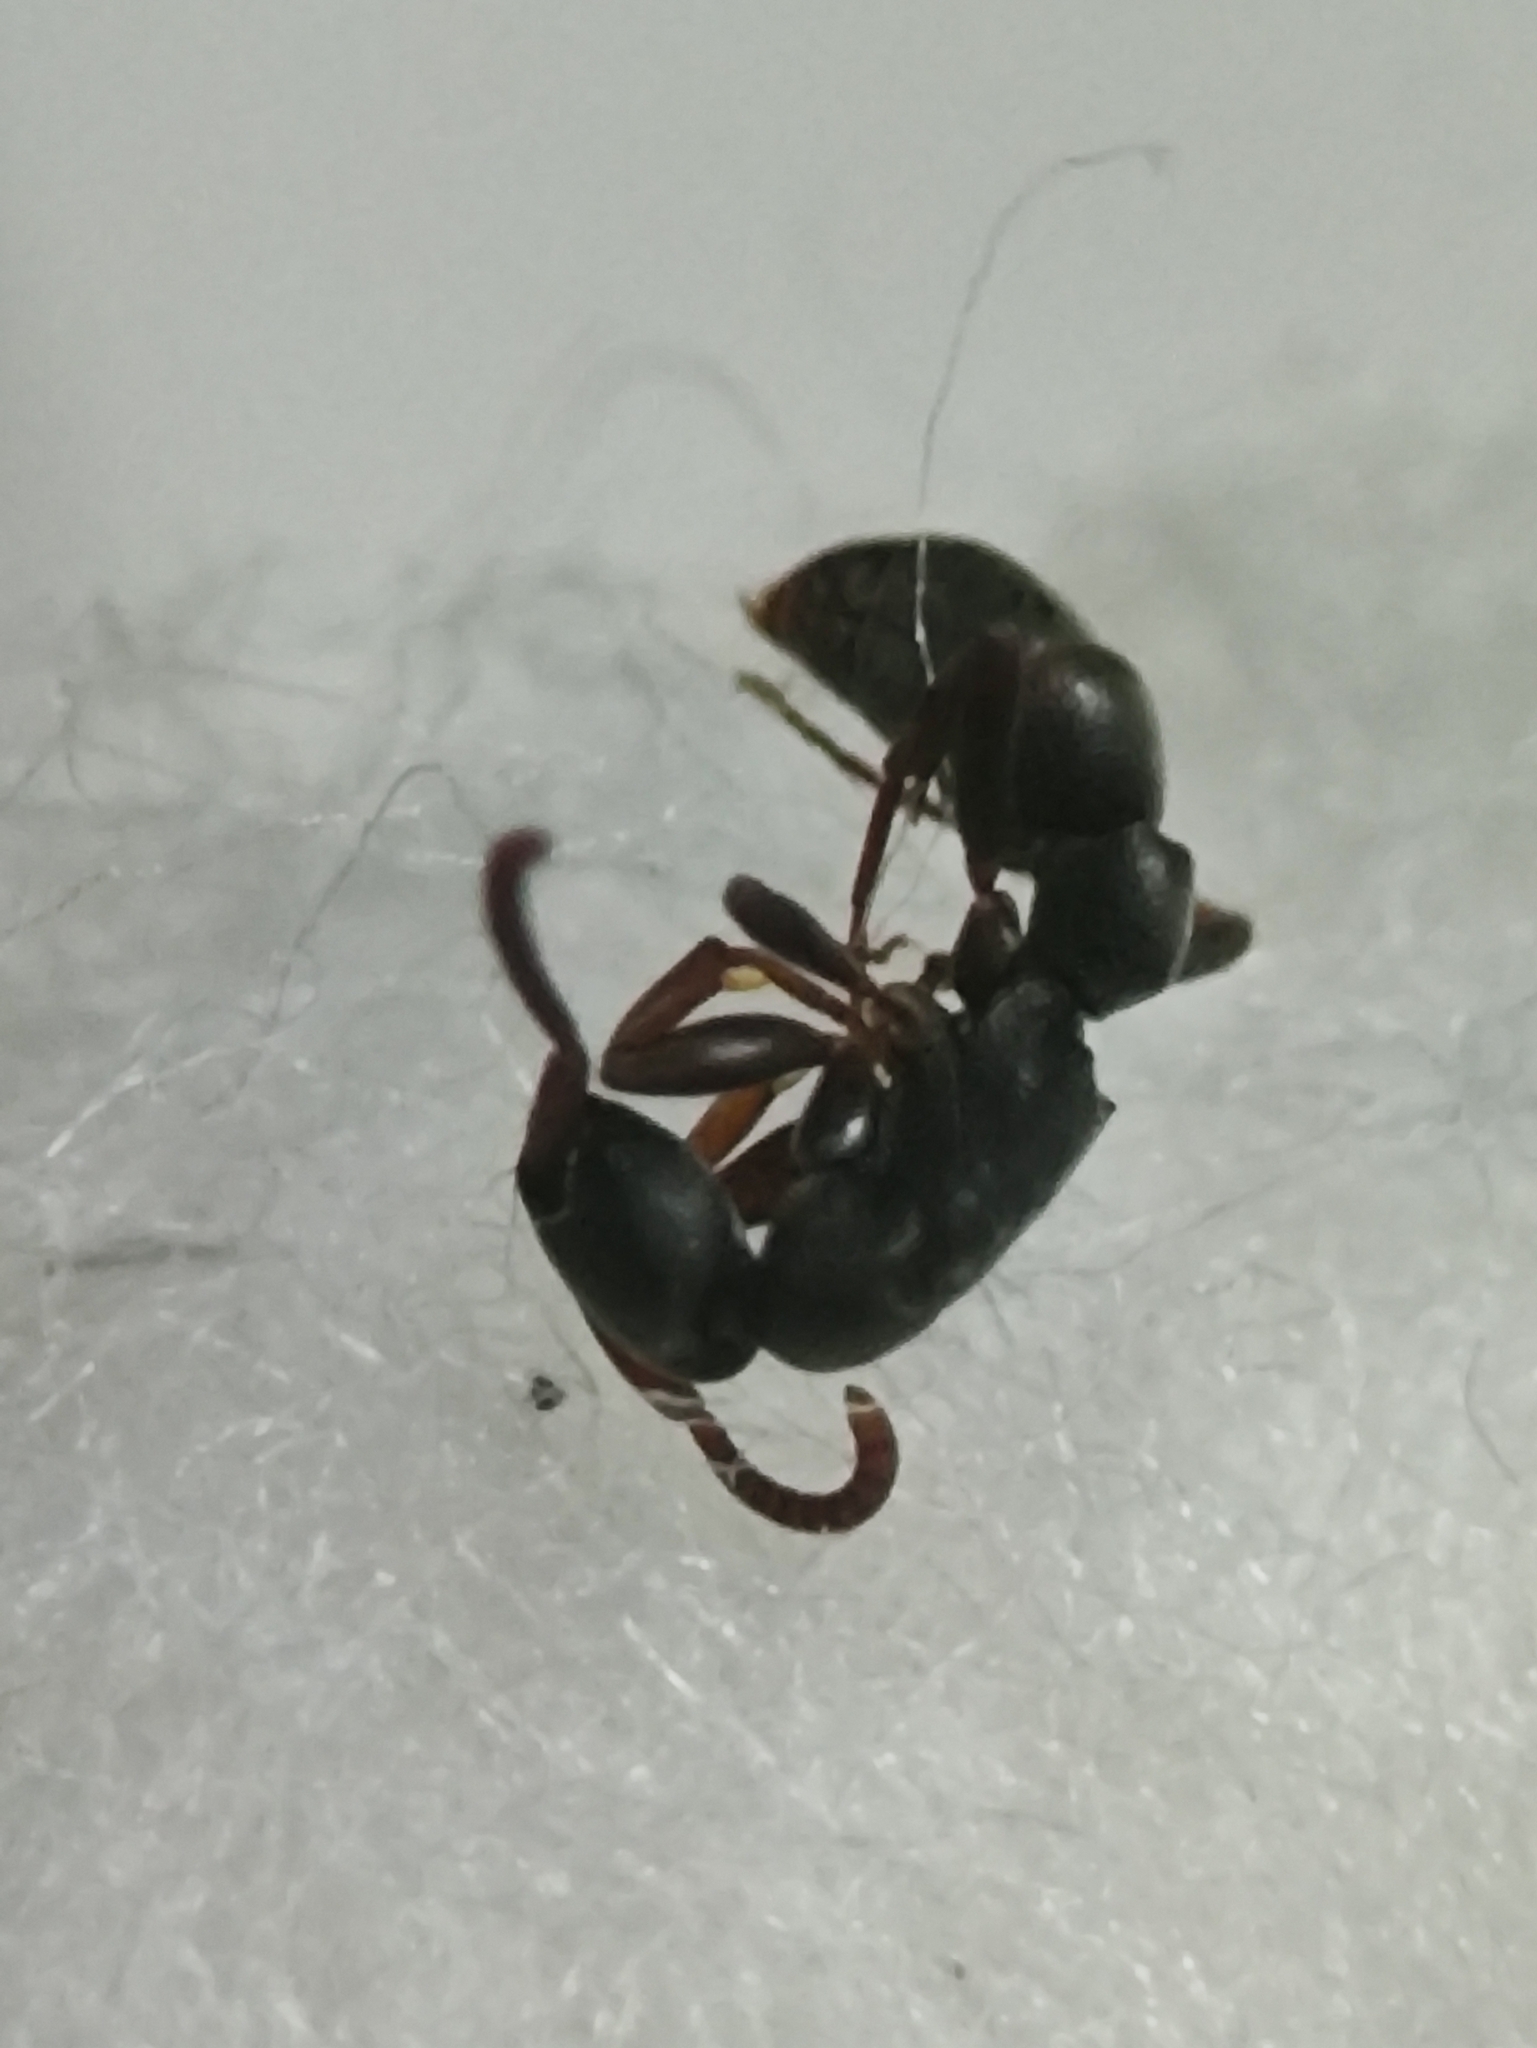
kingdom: Animalia
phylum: Arthropoda
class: Insecta
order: Hymenoptera
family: Formicidae
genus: Platythyrea
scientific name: Platythyrea parallela
